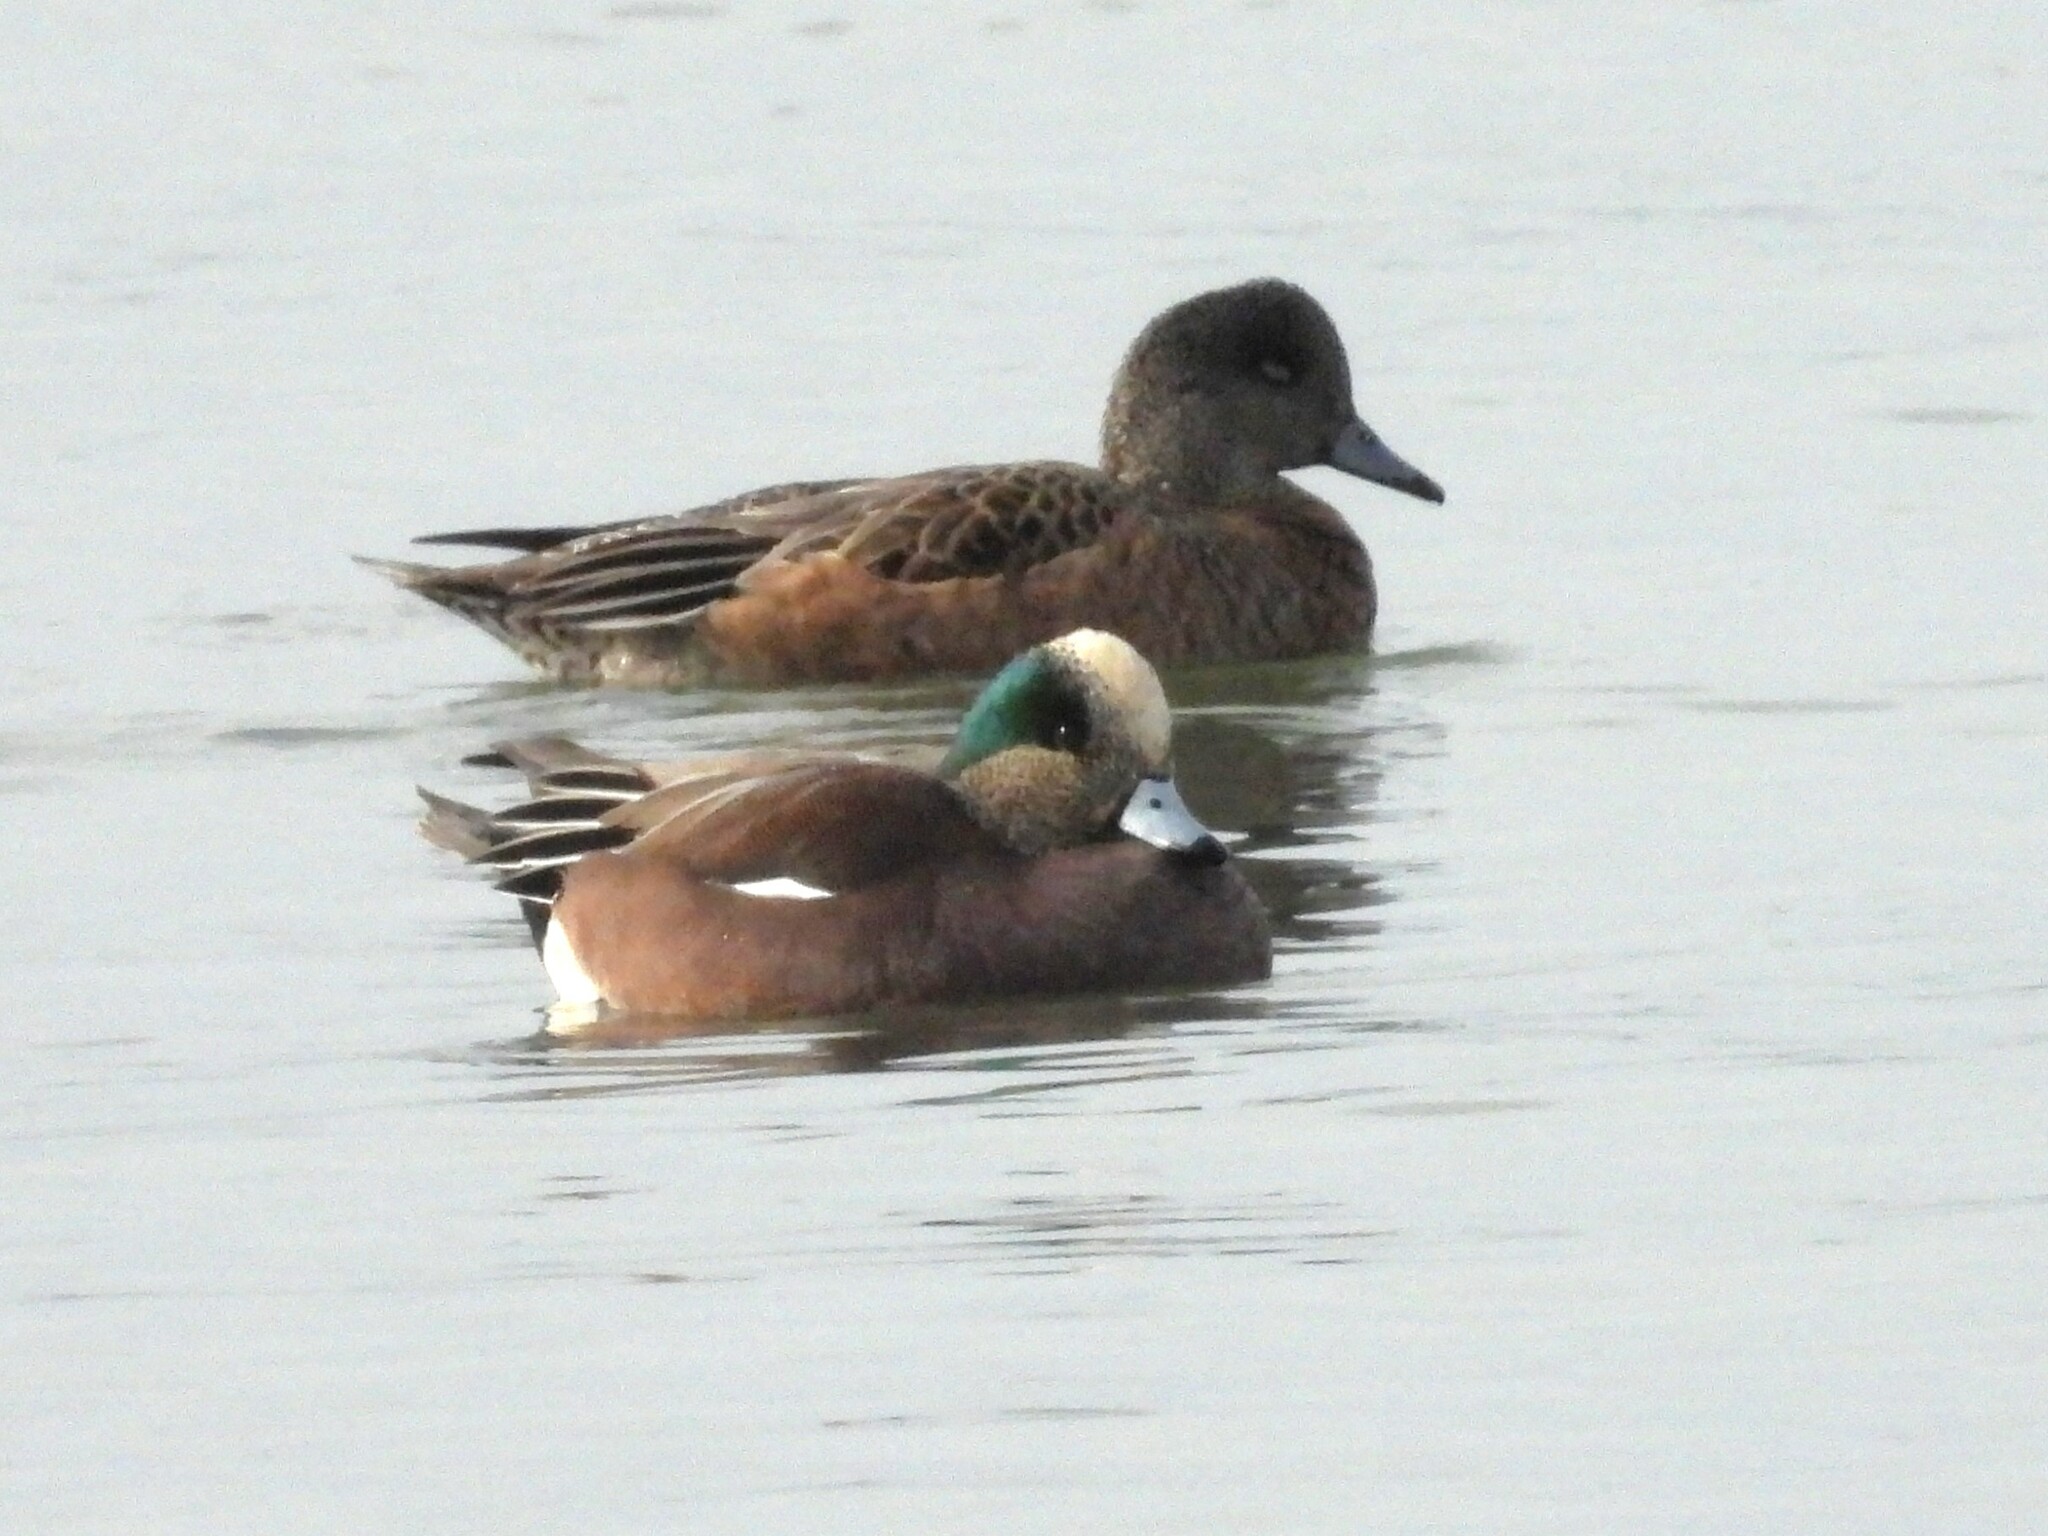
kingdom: Animalia
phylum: Chordata
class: Aves
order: Anseriformes
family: Anatidae
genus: Mareca
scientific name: Mareca americana
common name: American wigeon
